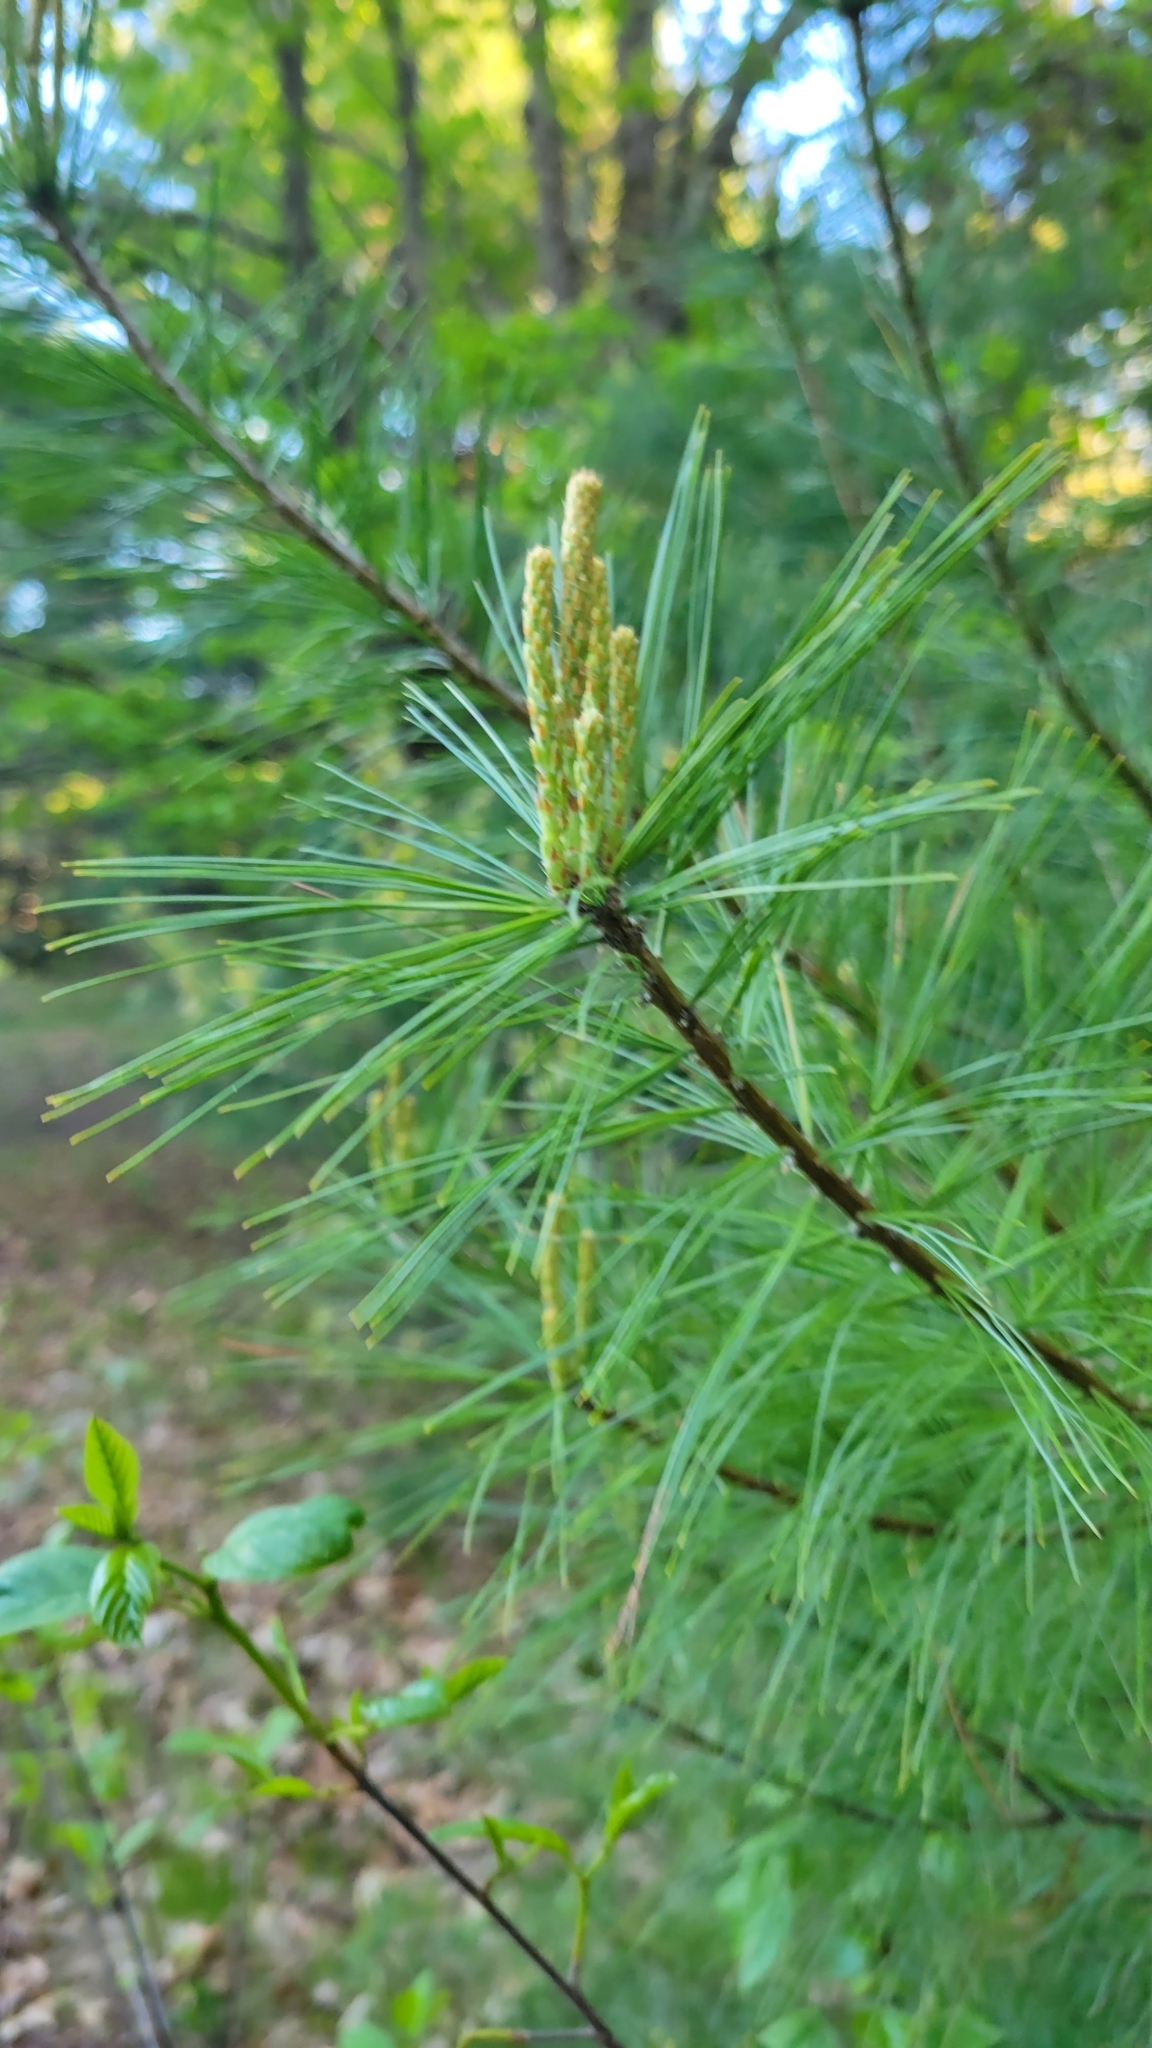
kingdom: Plantae
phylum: Tracheophyta
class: Pinopsida
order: Pinales
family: Pinaceae
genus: Pinus
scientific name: Pinus strobus
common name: Weymouth pine
